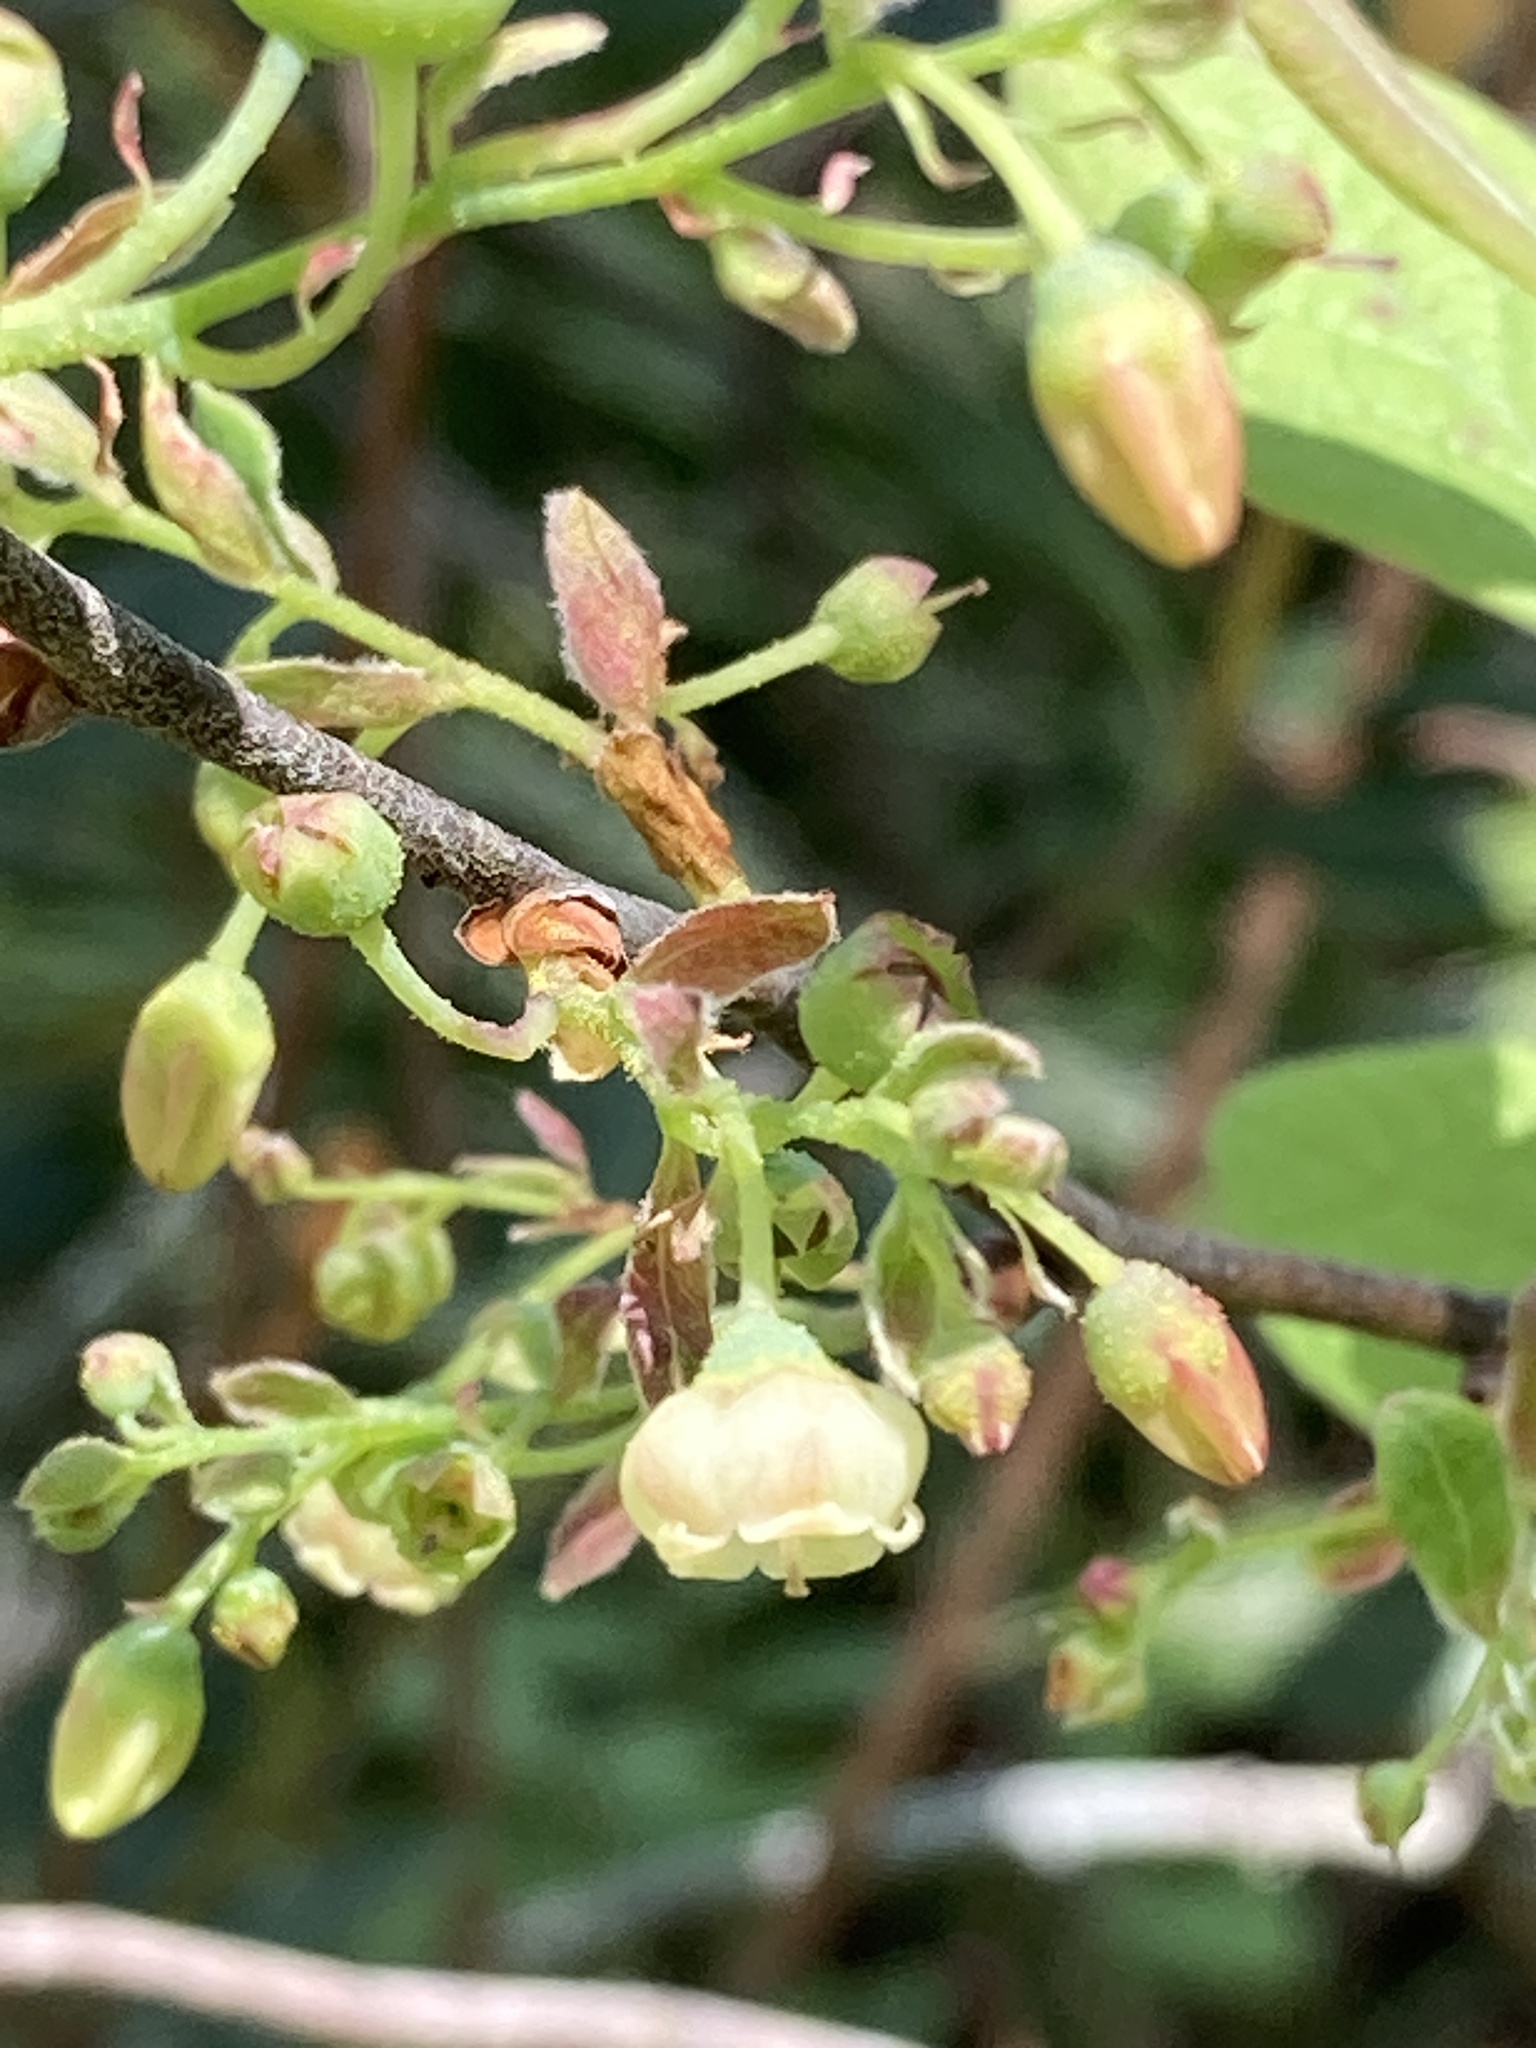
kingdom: Plantae
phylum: Tracheophyta
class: Magnoliopsida
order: Ericales
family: Ericaceae
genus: Gaylussacia
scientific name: Gaylussacia tomentosa
